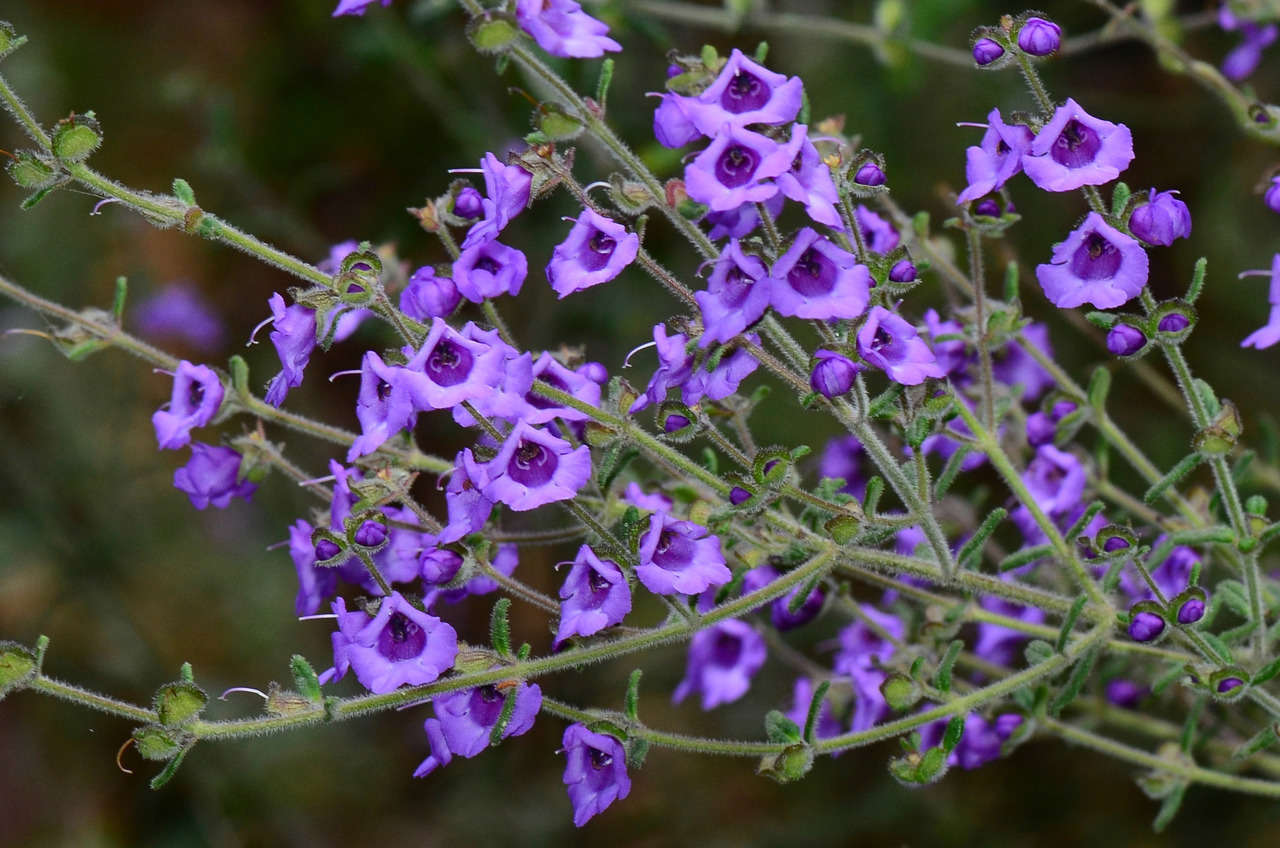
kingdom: Plantae
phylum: Tracheophyta
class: Magnoliopsida
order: Lamiales
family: Lamiaceae
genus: Prostanthera
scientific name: Prostanthera hirtula
